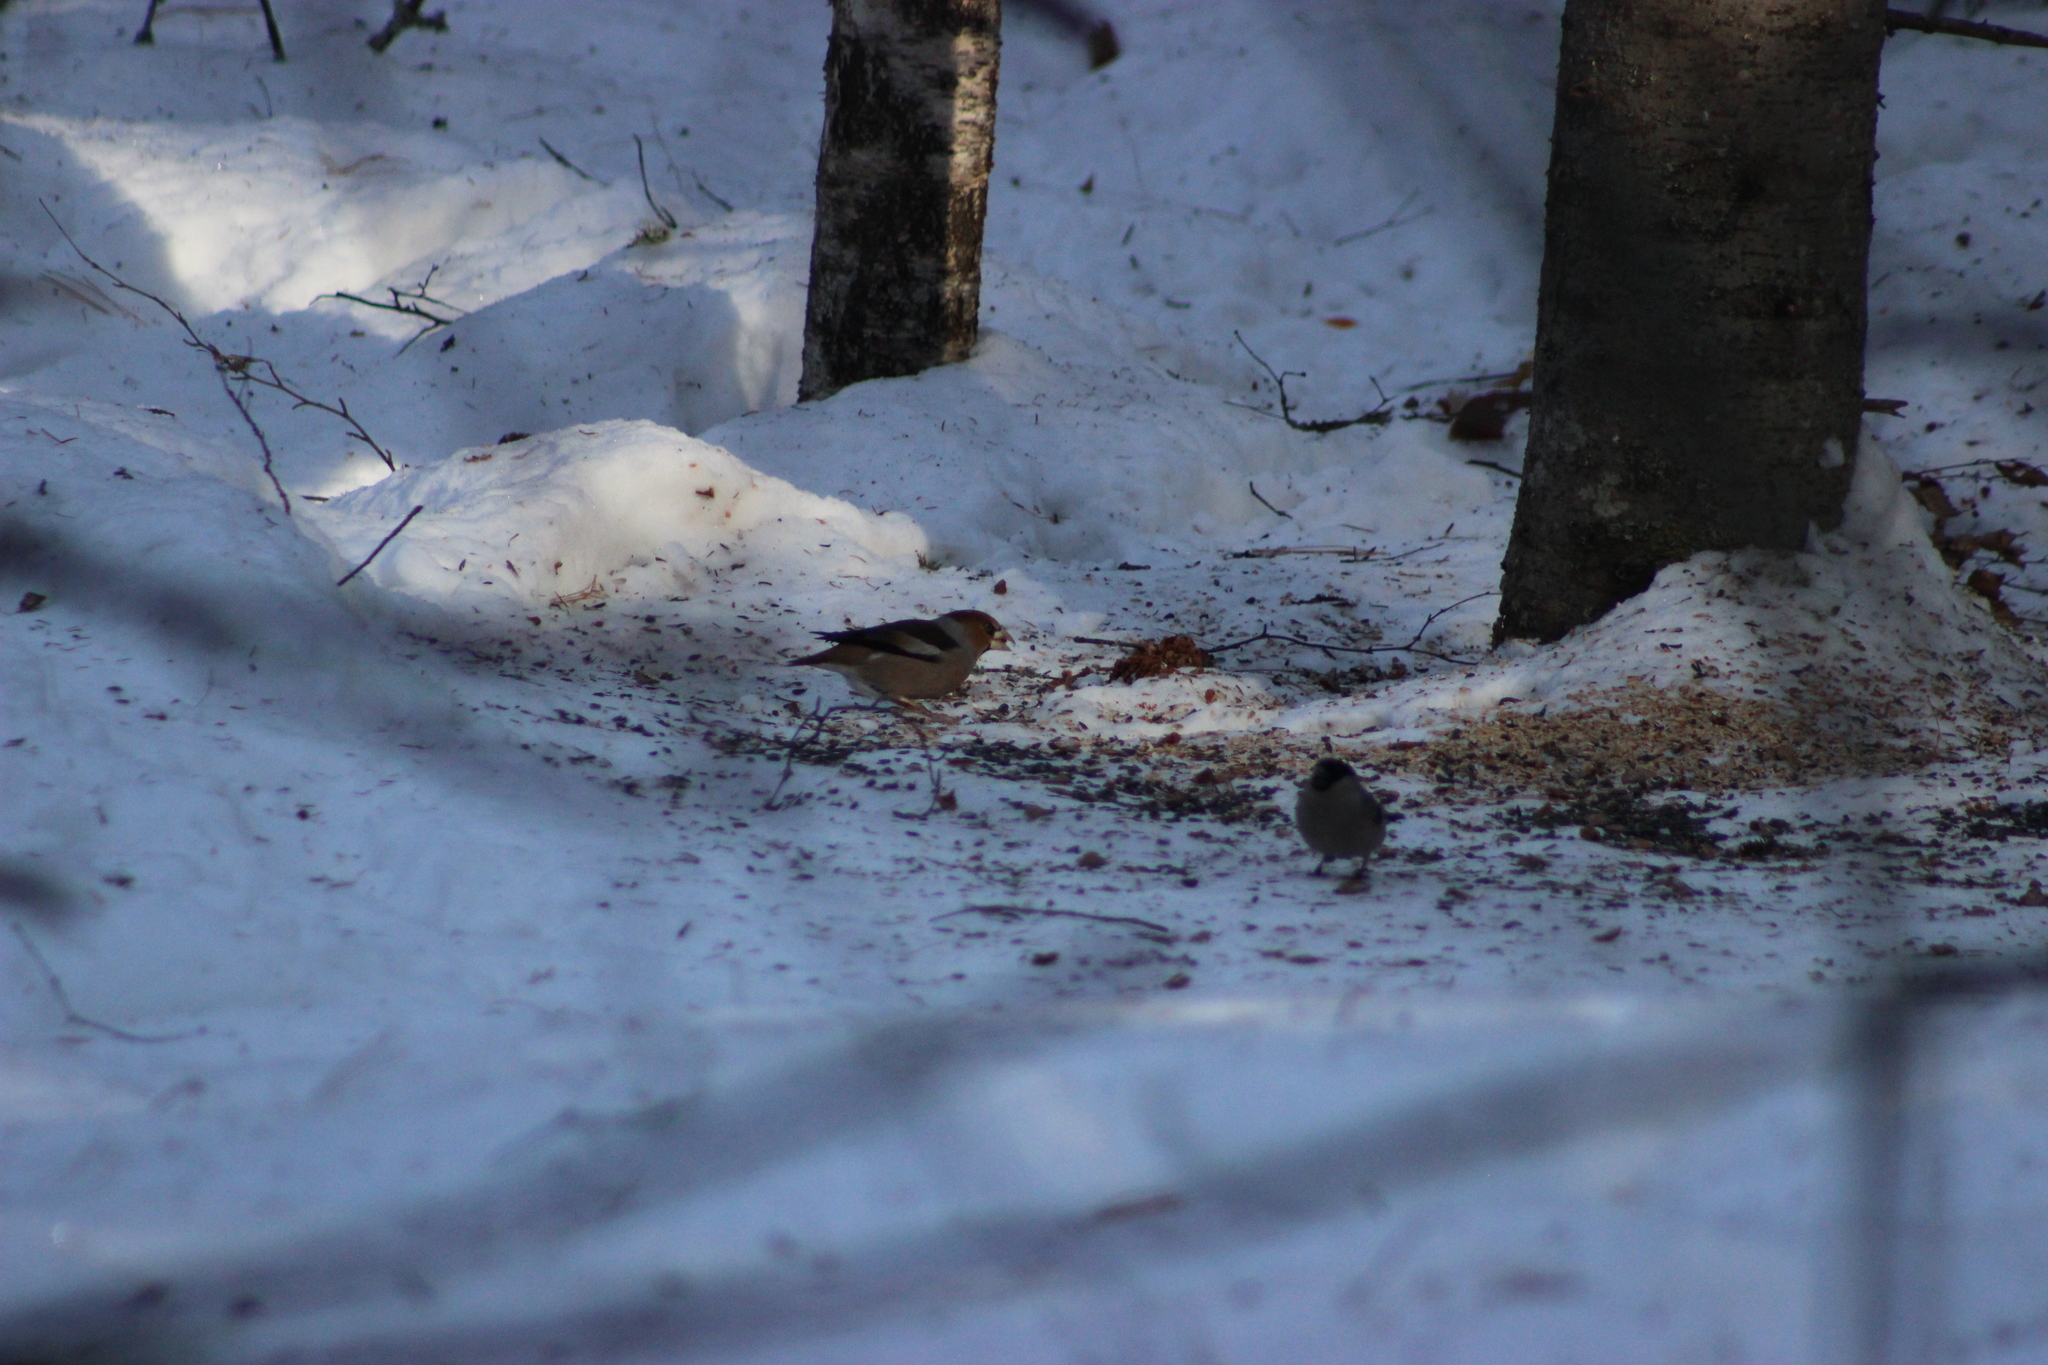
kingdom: Animalia
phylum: Chordata
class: Aves
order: Passeriformes
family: Fringillidae
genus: Coccothraustes
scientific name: Coccothraustes coccothraustes
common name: Hawfinch
